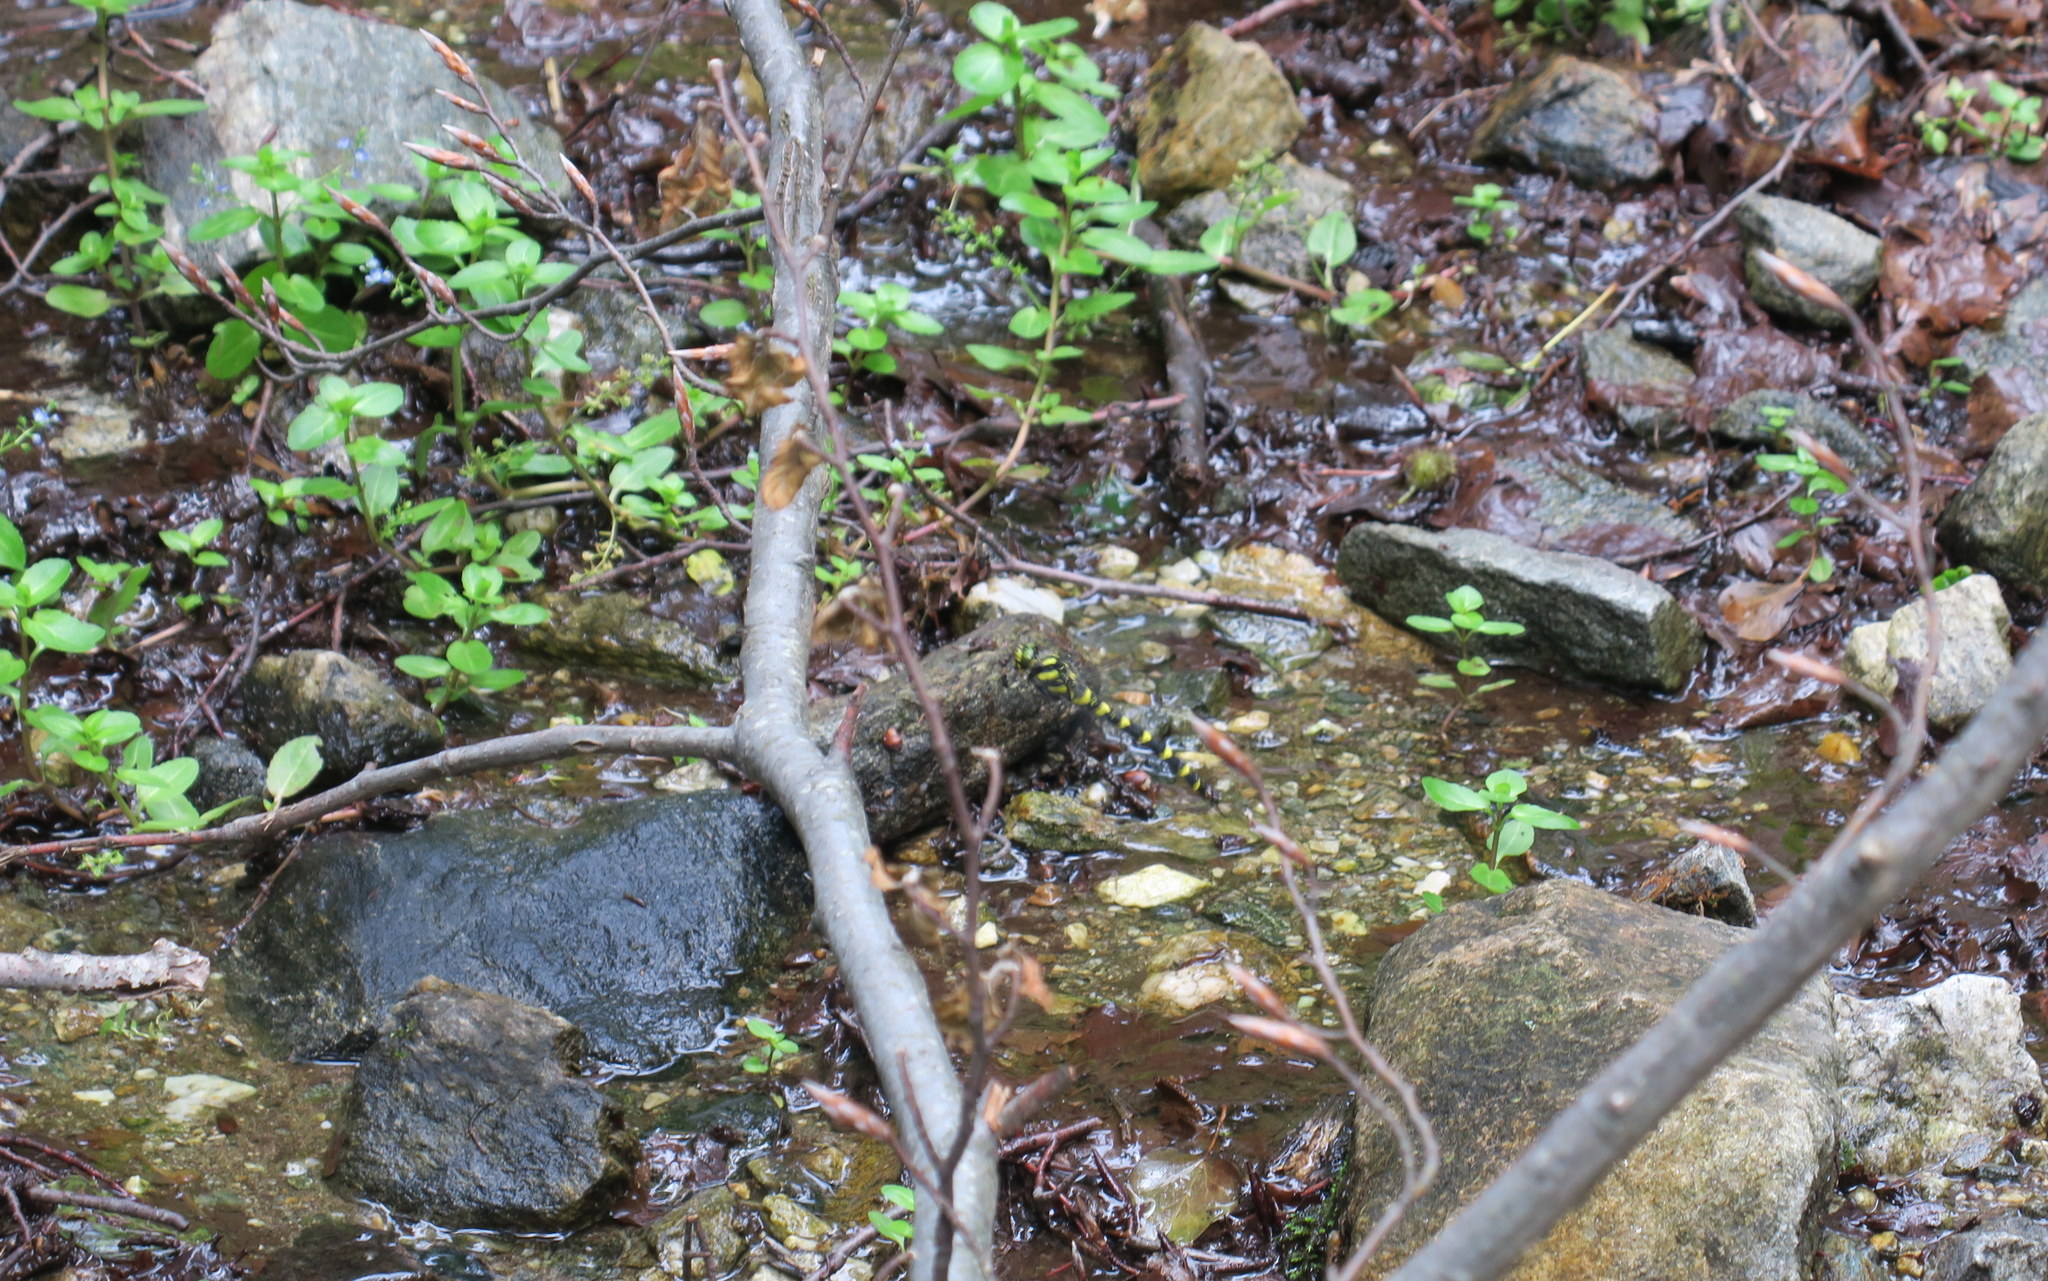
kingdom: Animalia
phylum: Arthropoda
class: Insecta
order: Odonata
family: Cordulegastridae
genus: Cordulegaster
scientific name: Cordulegaster bidentata
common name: Sombre goldenring
